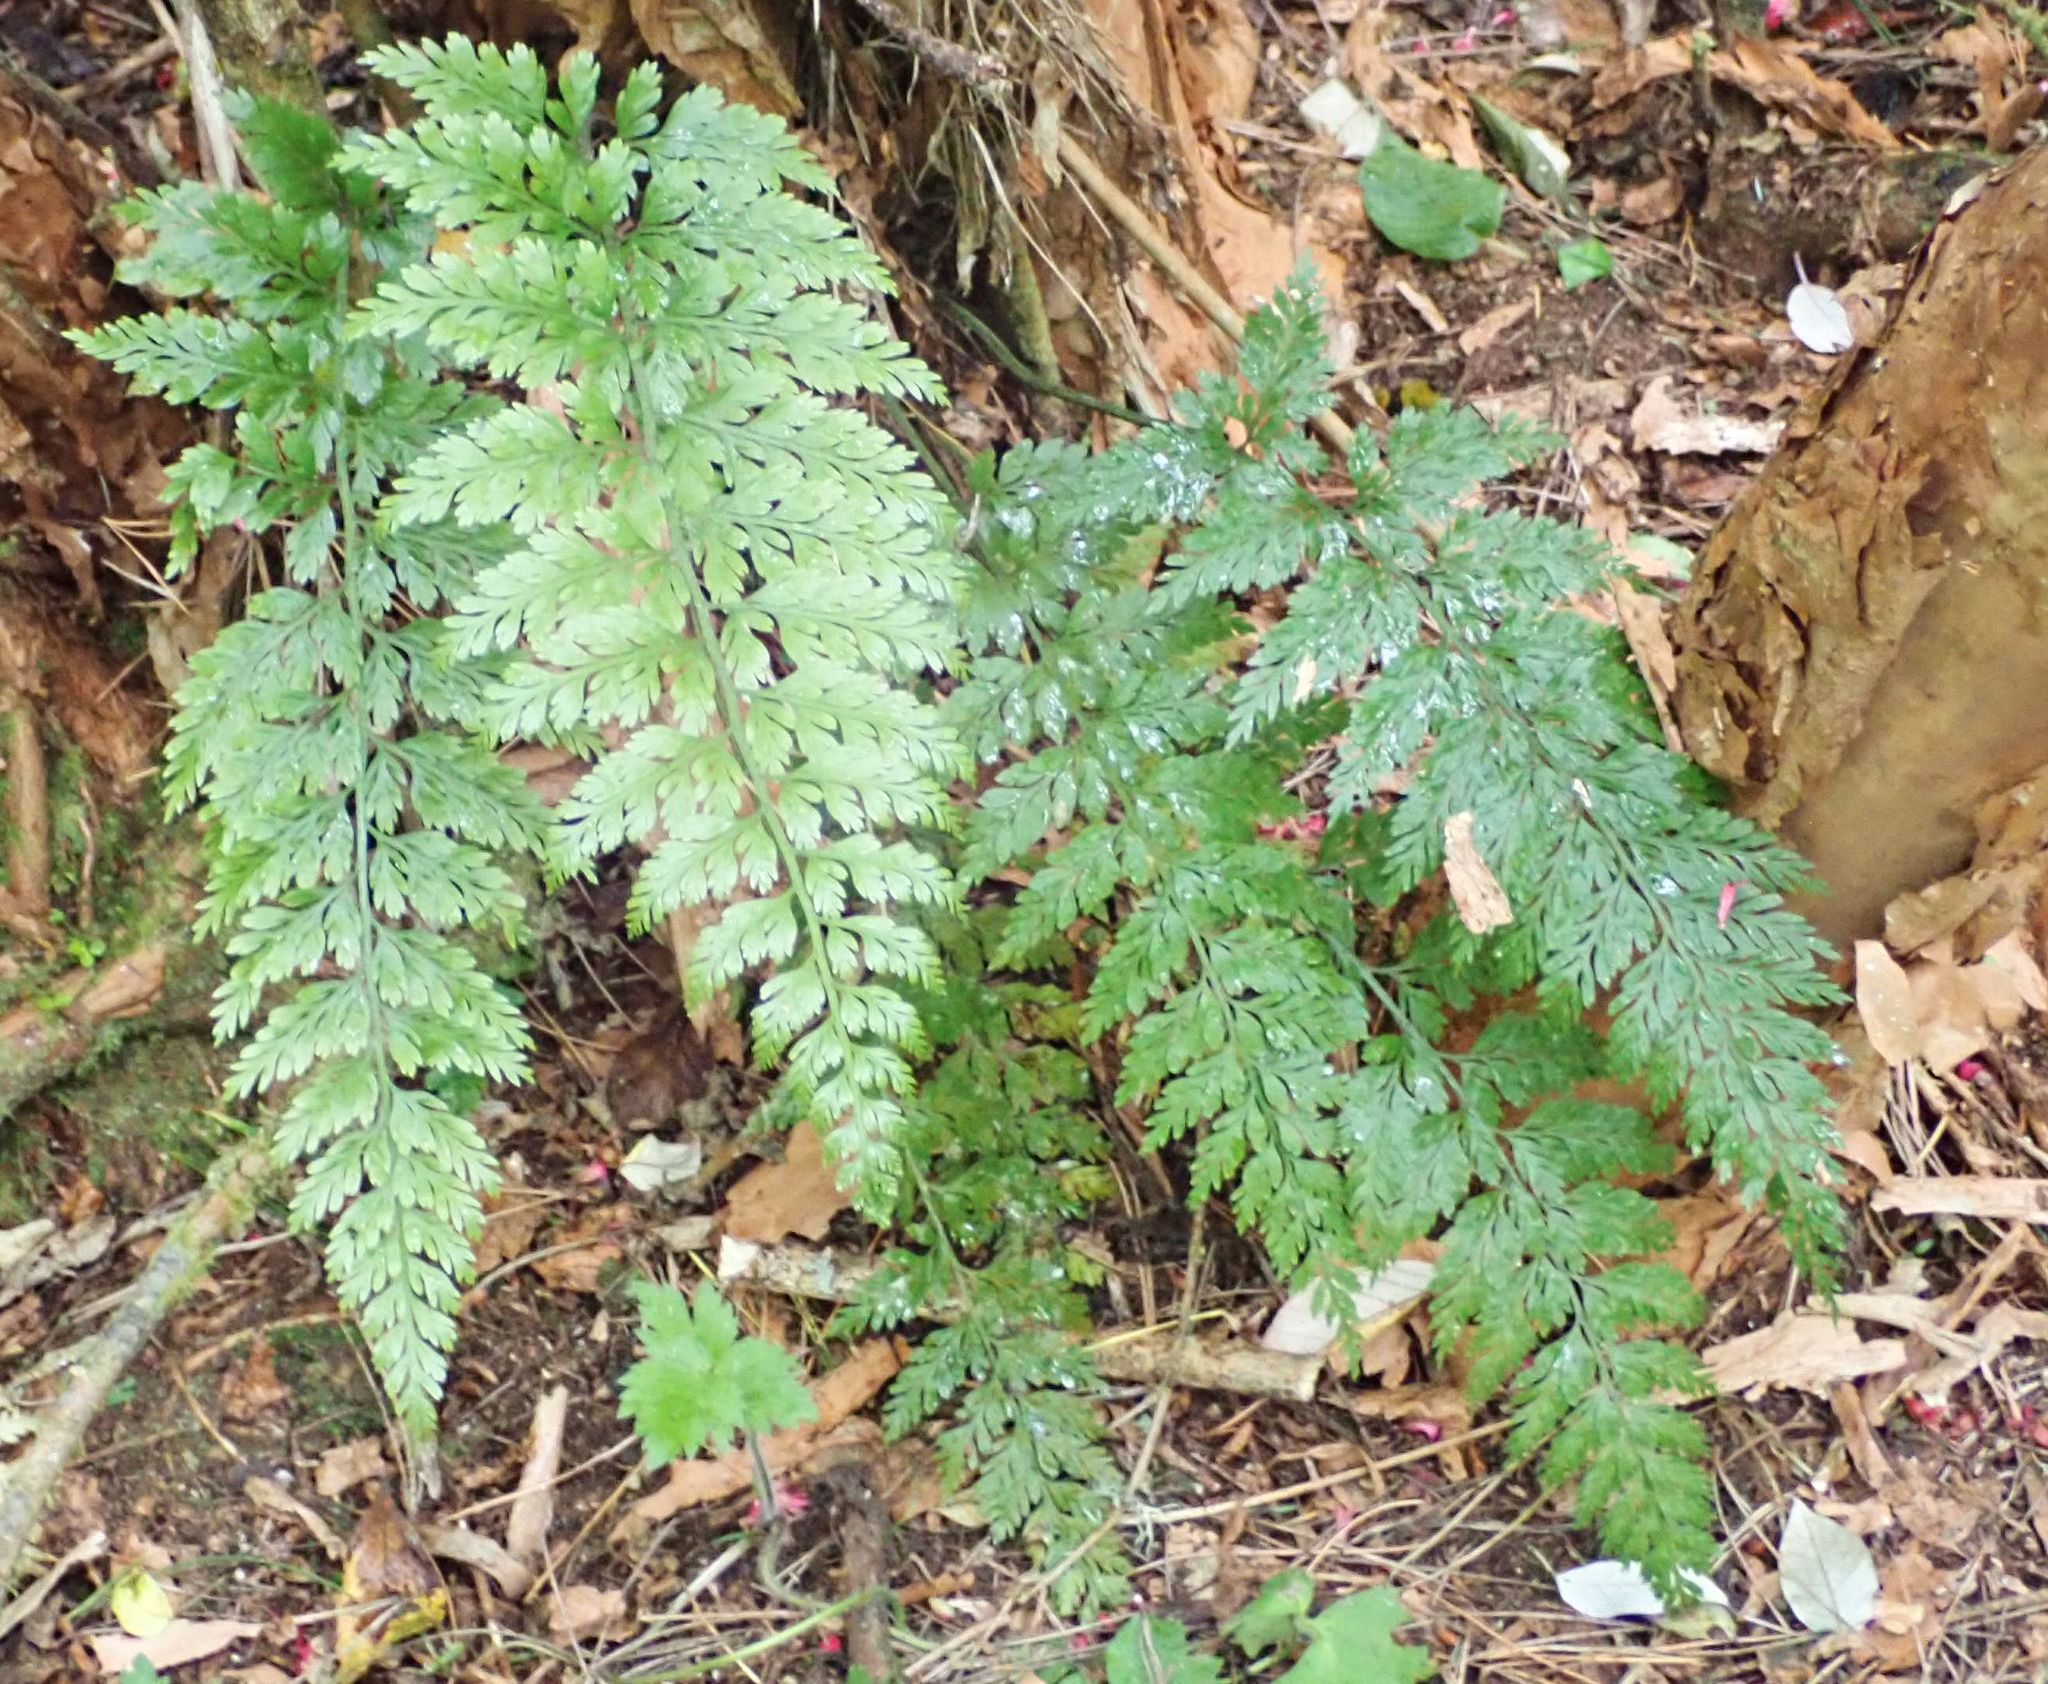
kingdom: Plantae
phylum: Tracheophyta
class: Polypodiopsida
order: Polypodiales
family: Aspleniaceae
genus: Asplenium
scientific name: Asplenium
